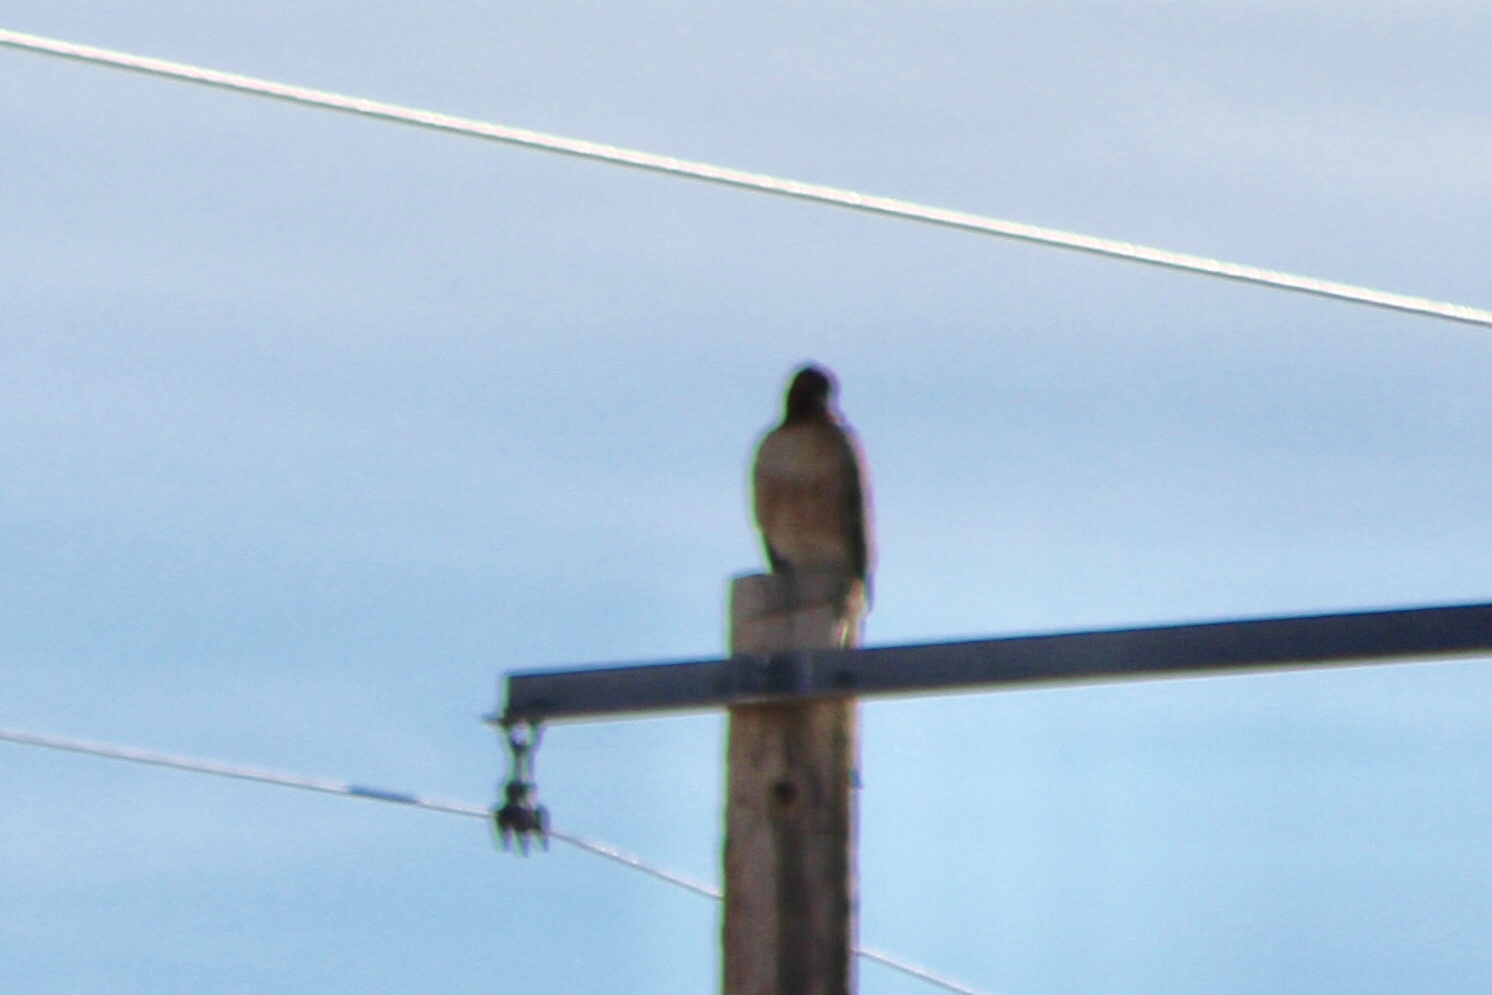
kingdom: Animalia
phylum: Chordata
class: Aves
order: Accipitriformes
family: Accipitridae
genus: Buteo
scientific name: Buteo jamaicensis
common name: Red-tailed hawk
